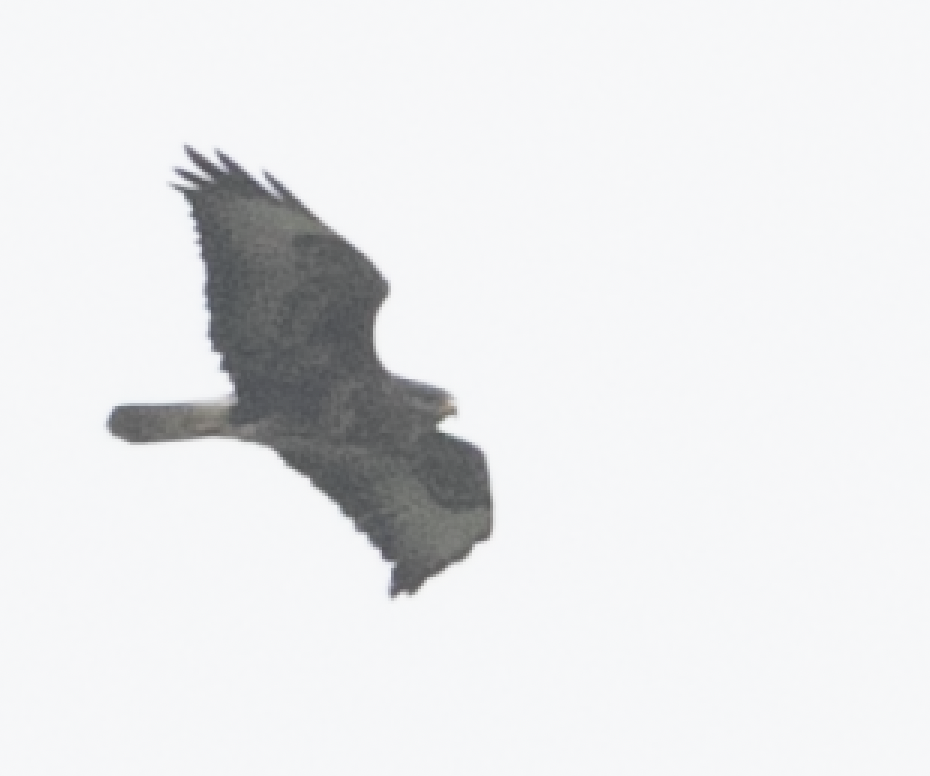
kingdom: Animalia
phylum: Chordata
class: Aves
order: Accipitriformes
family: Accipitridae
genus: Buteo
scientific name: Buteo buteo
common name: Common buzzard
